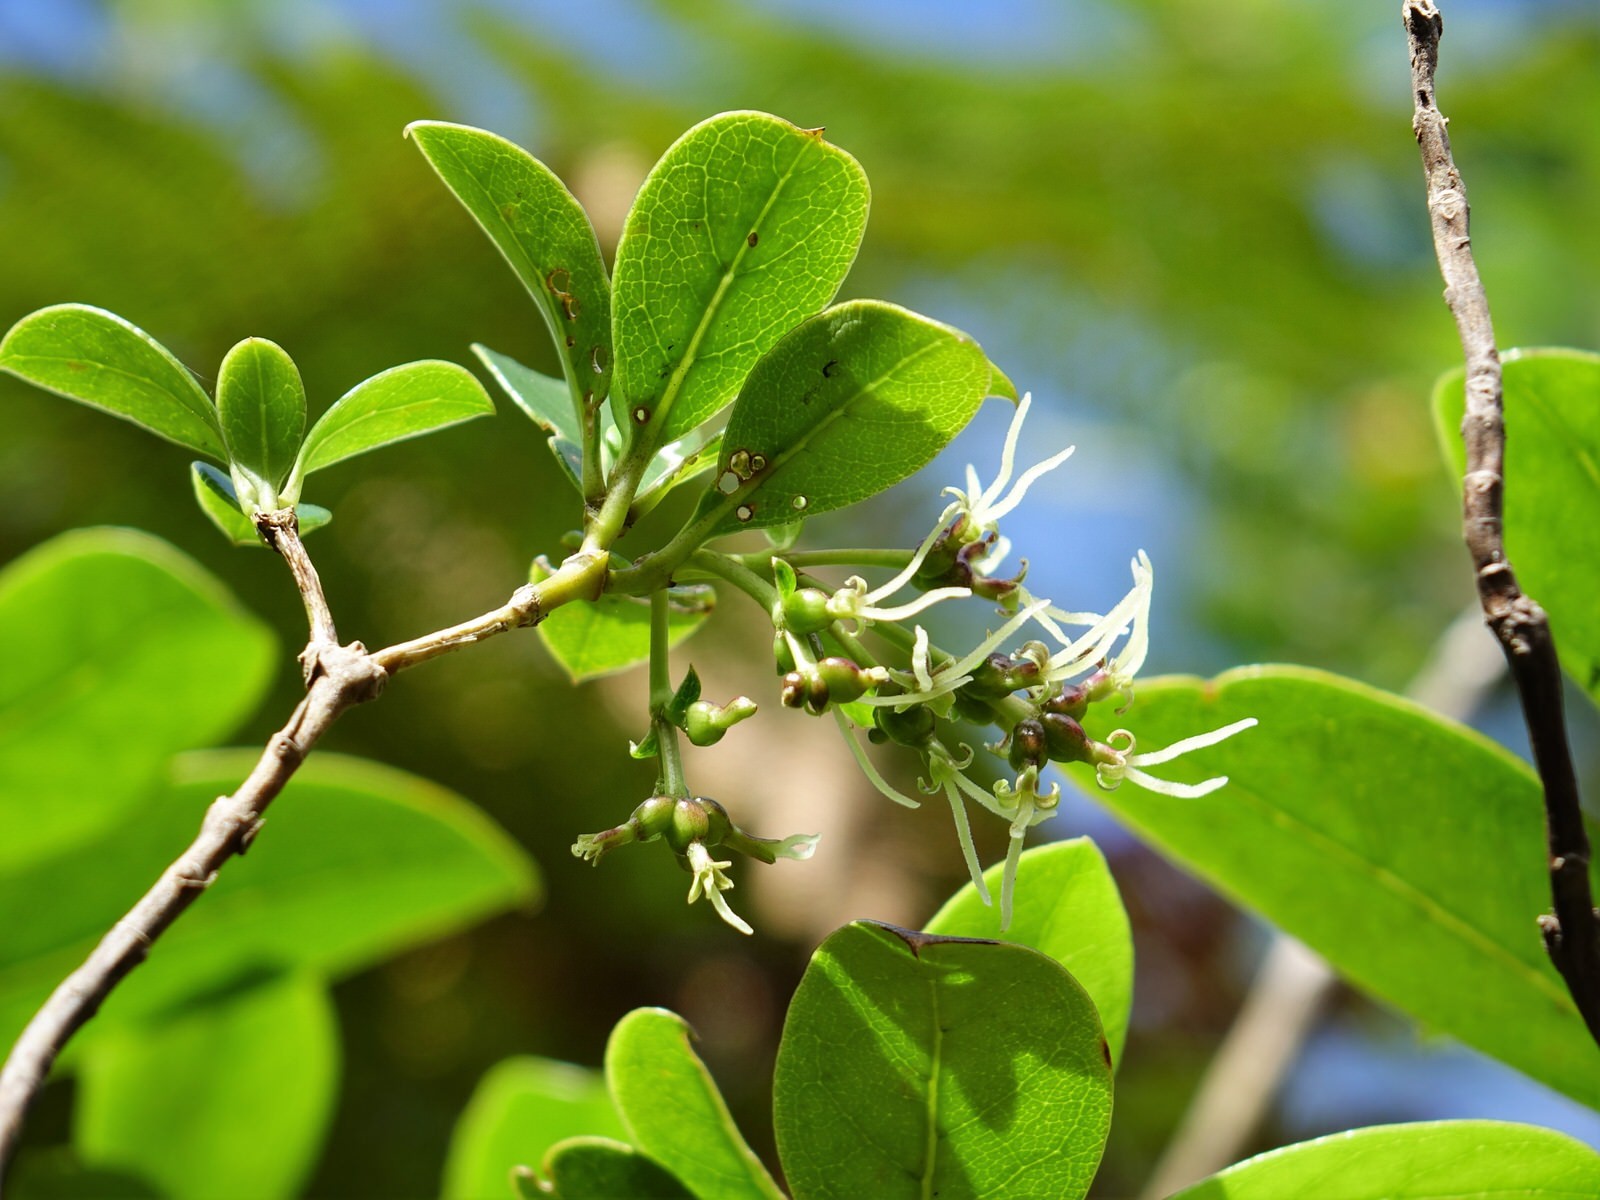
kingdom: Plantae
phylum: Tracheophyta
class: Magnoliopsida
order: Gentianales
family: Rubiaceae
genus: Coprosma
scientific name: Coprosma lucida
